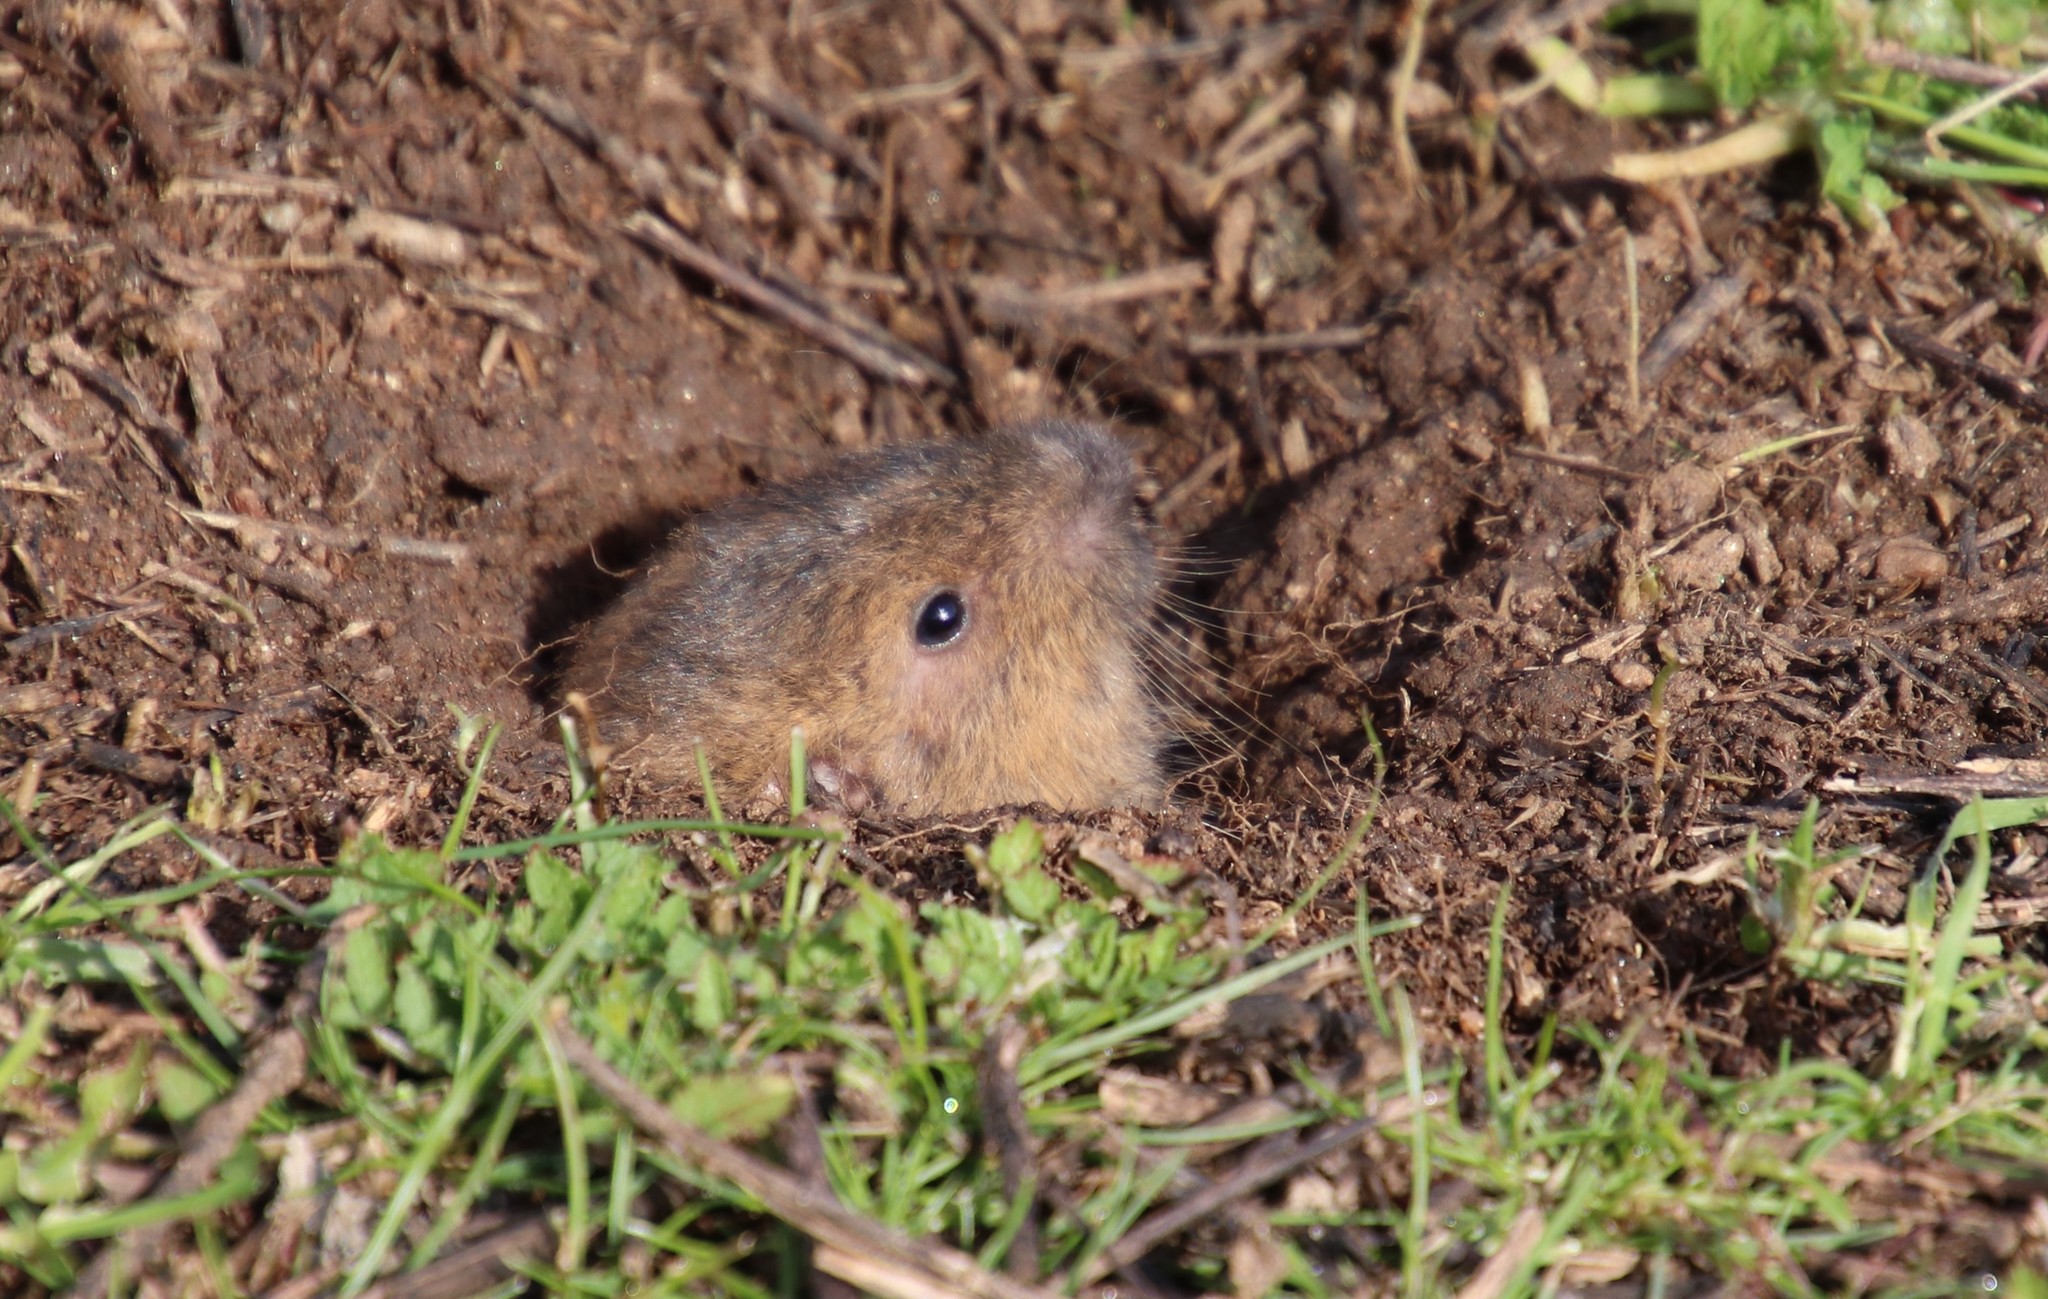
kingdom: Animalia
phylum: Chordata
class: Mammalia
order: Rodentia
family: Geomyidae
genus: Thomomys
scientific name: Thomomys bottae
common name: Botta's pocket gopher
